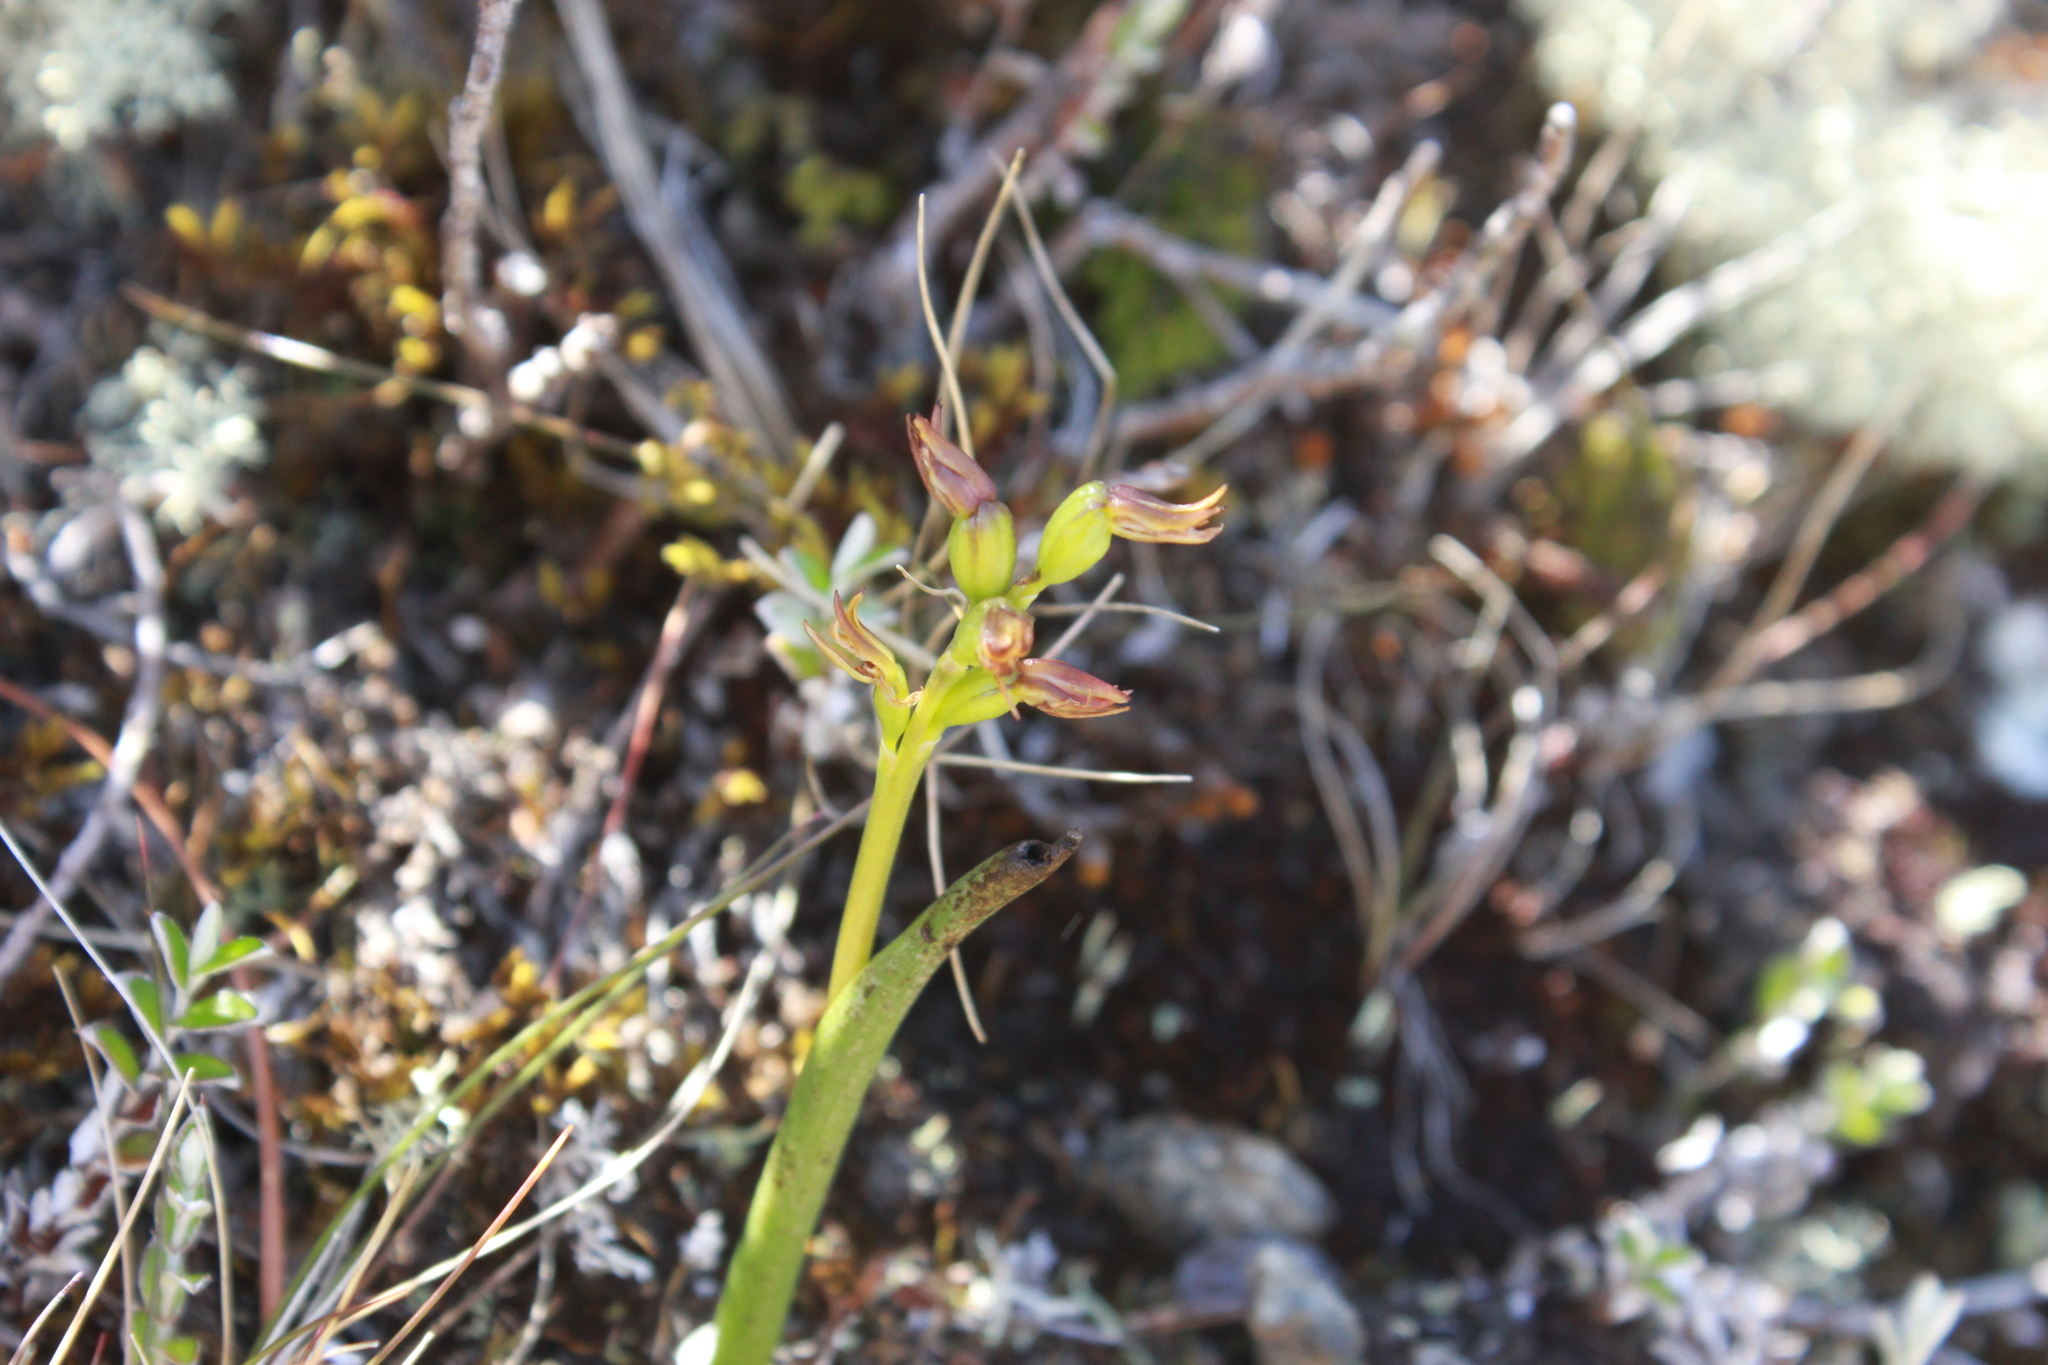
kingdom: Plantae
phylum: Tracheophyta
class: Liliopsida
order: Asparagales
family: Orchidaceae
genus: Prasophyllum
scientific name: Prasophyllum colensoi
